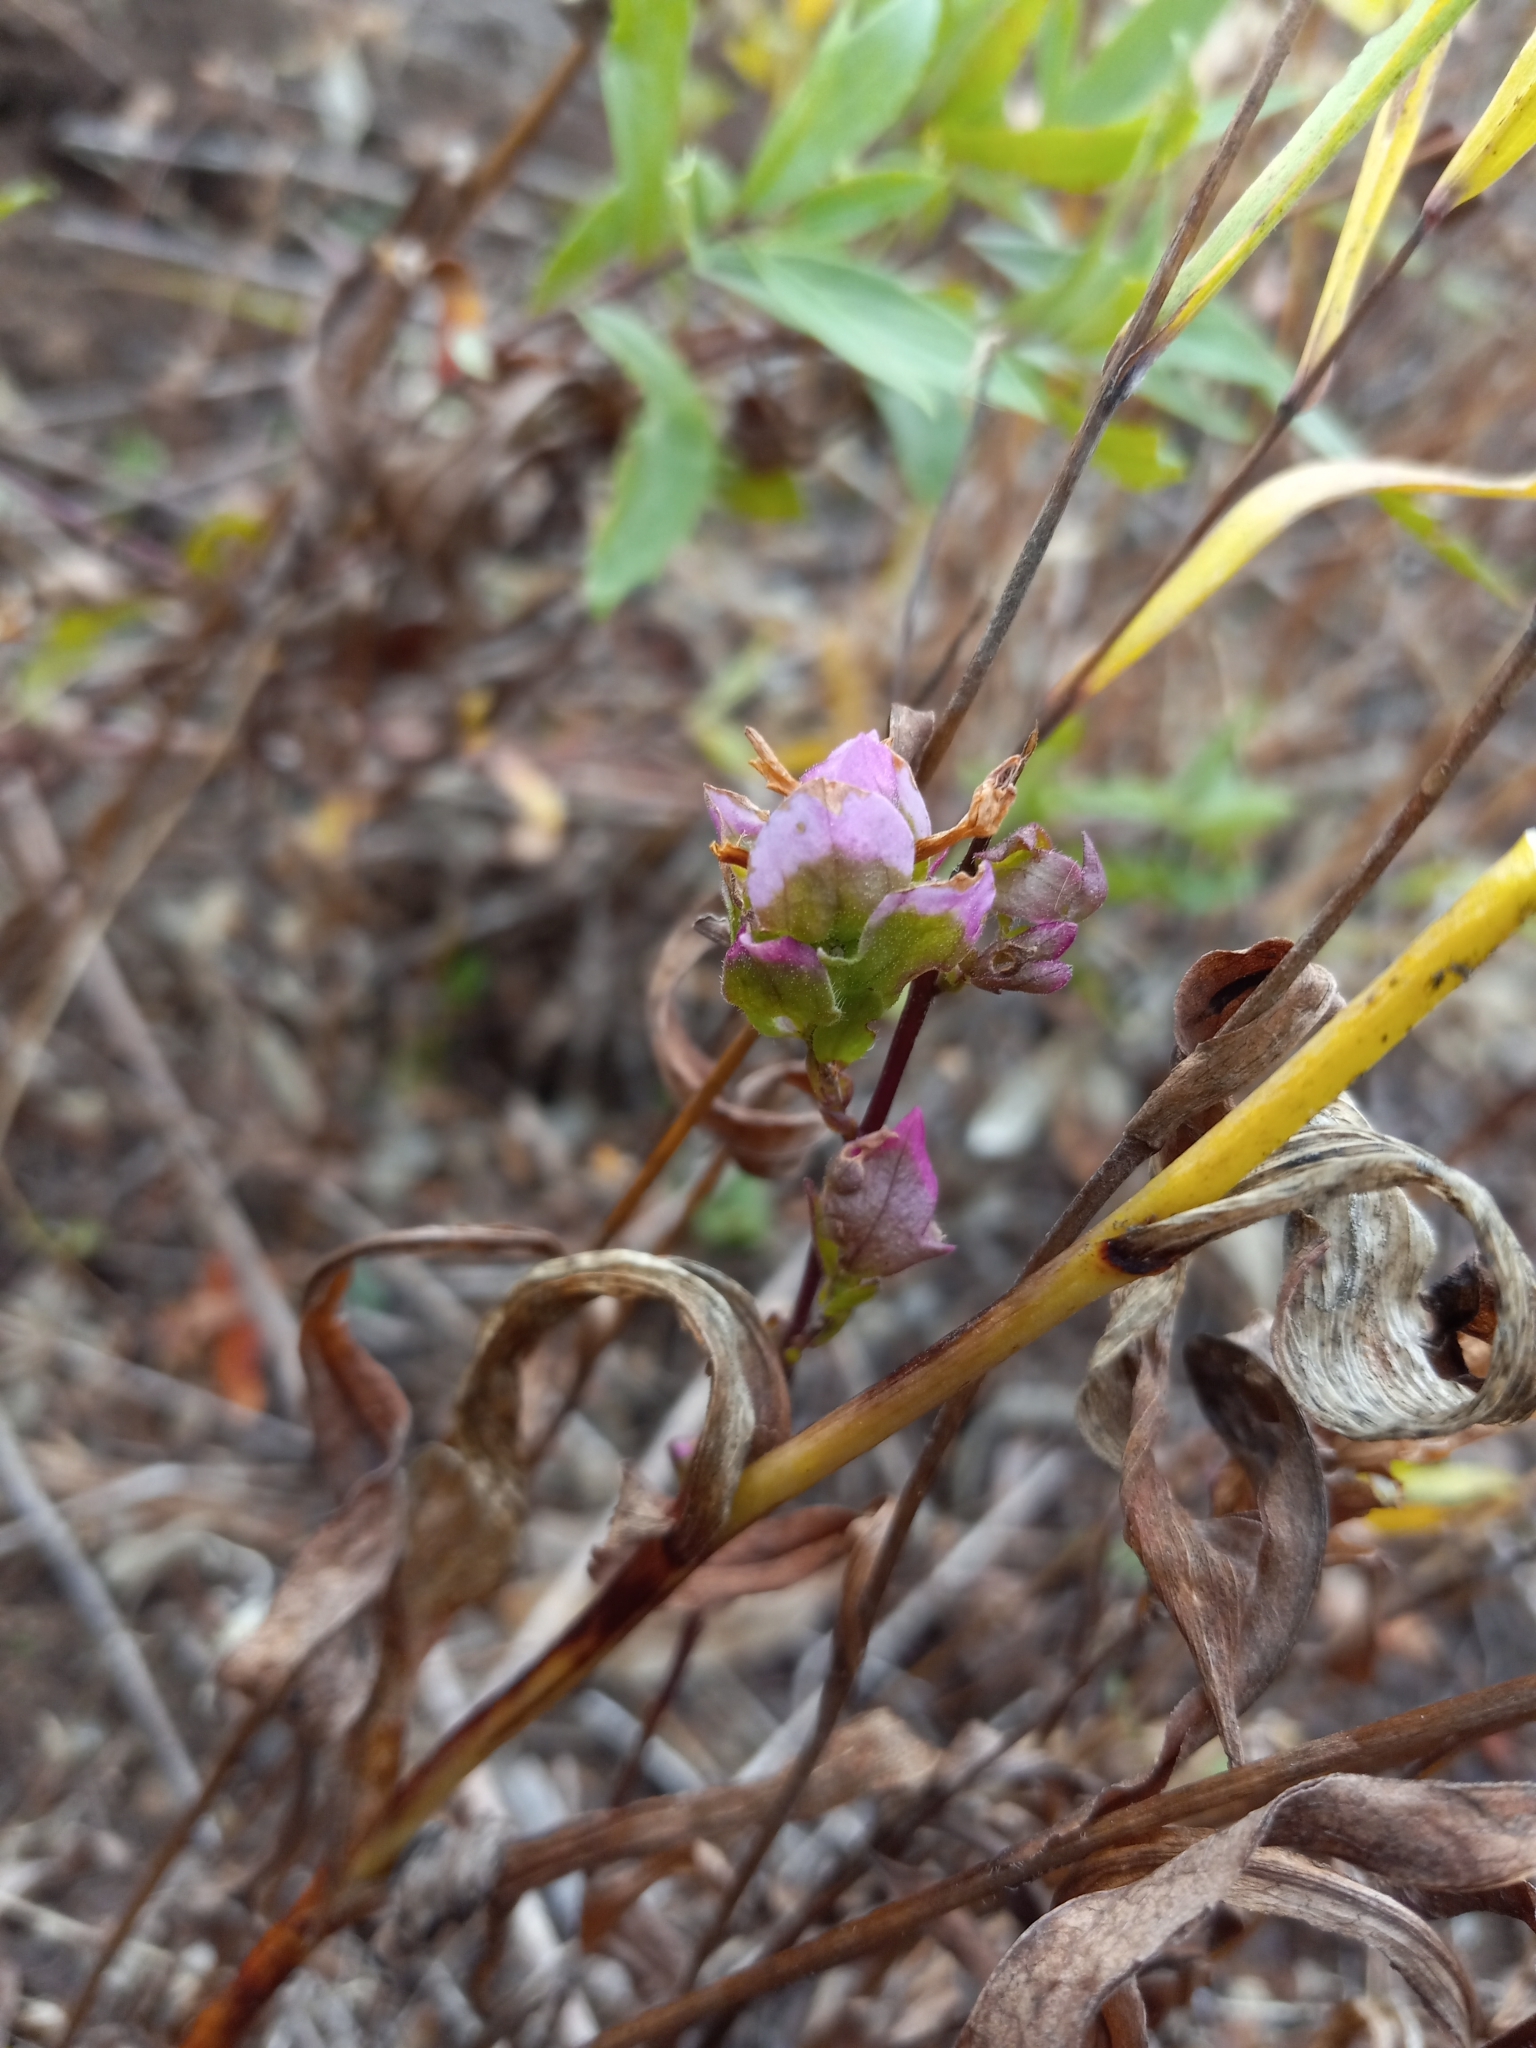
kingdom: Plantae
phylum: Tracheophyta
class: Magnoliopsida
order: Lamiales
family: Orobanchaceae
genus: Orthocarpus
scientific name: Orthocarpus imbricatus
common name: Mountain owl's-clover
